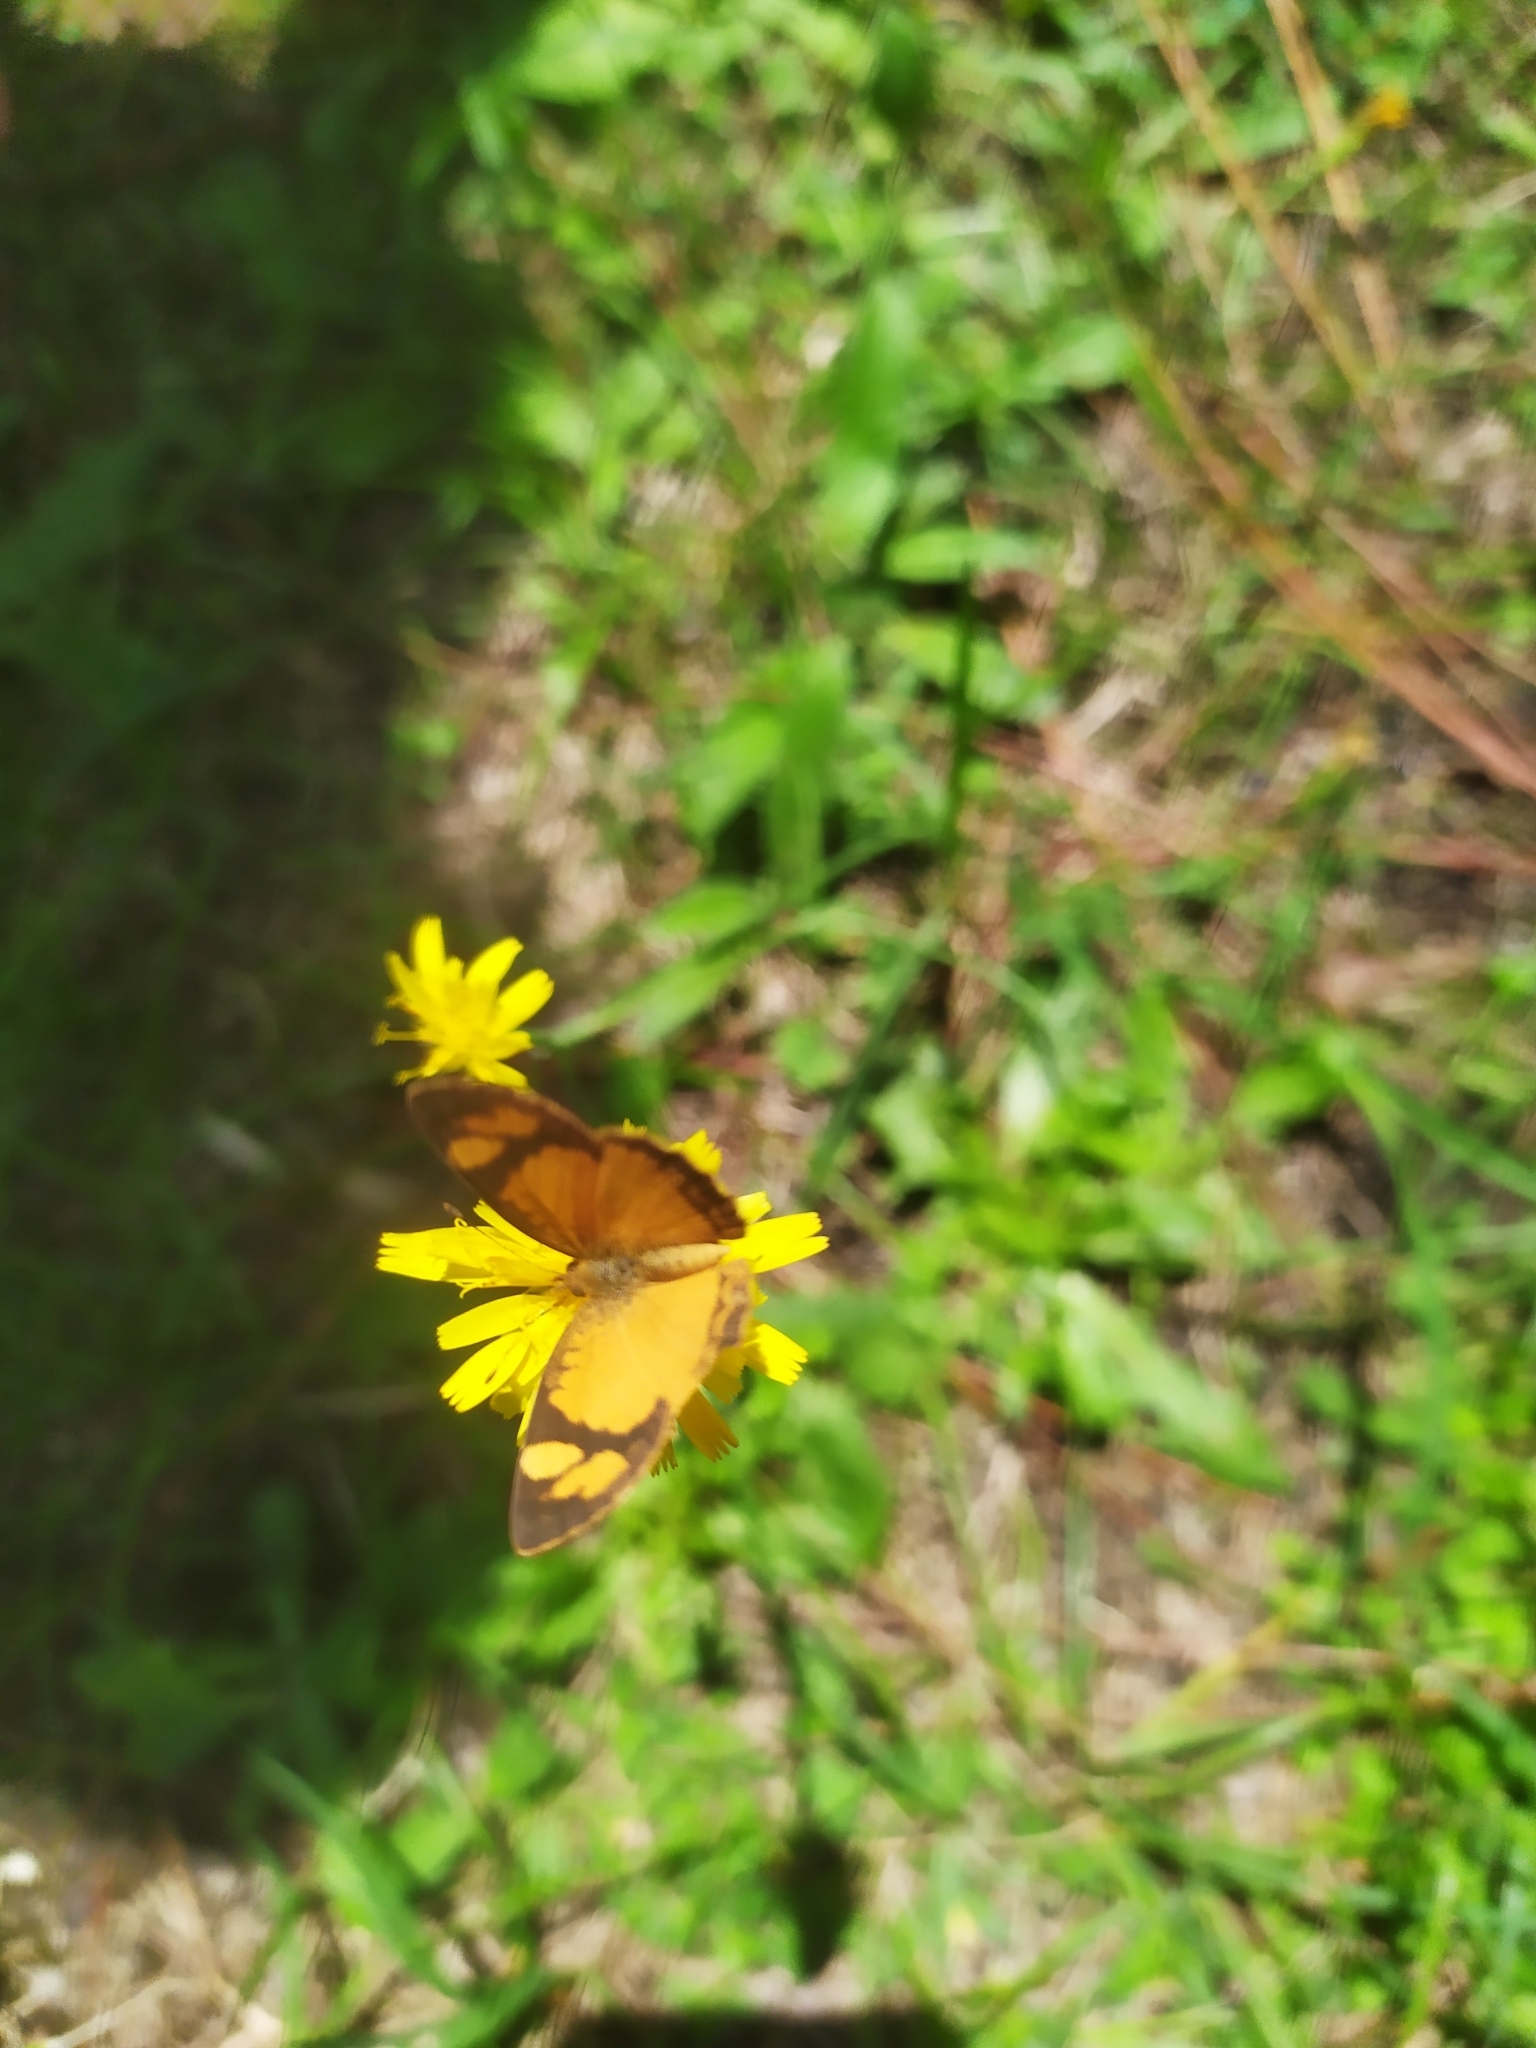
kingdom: Animalia
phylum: Arthropoda
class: Insecta
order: Lepidoptera
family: Nymphalidae
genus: Tegosa
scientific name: Tegosa claudina
